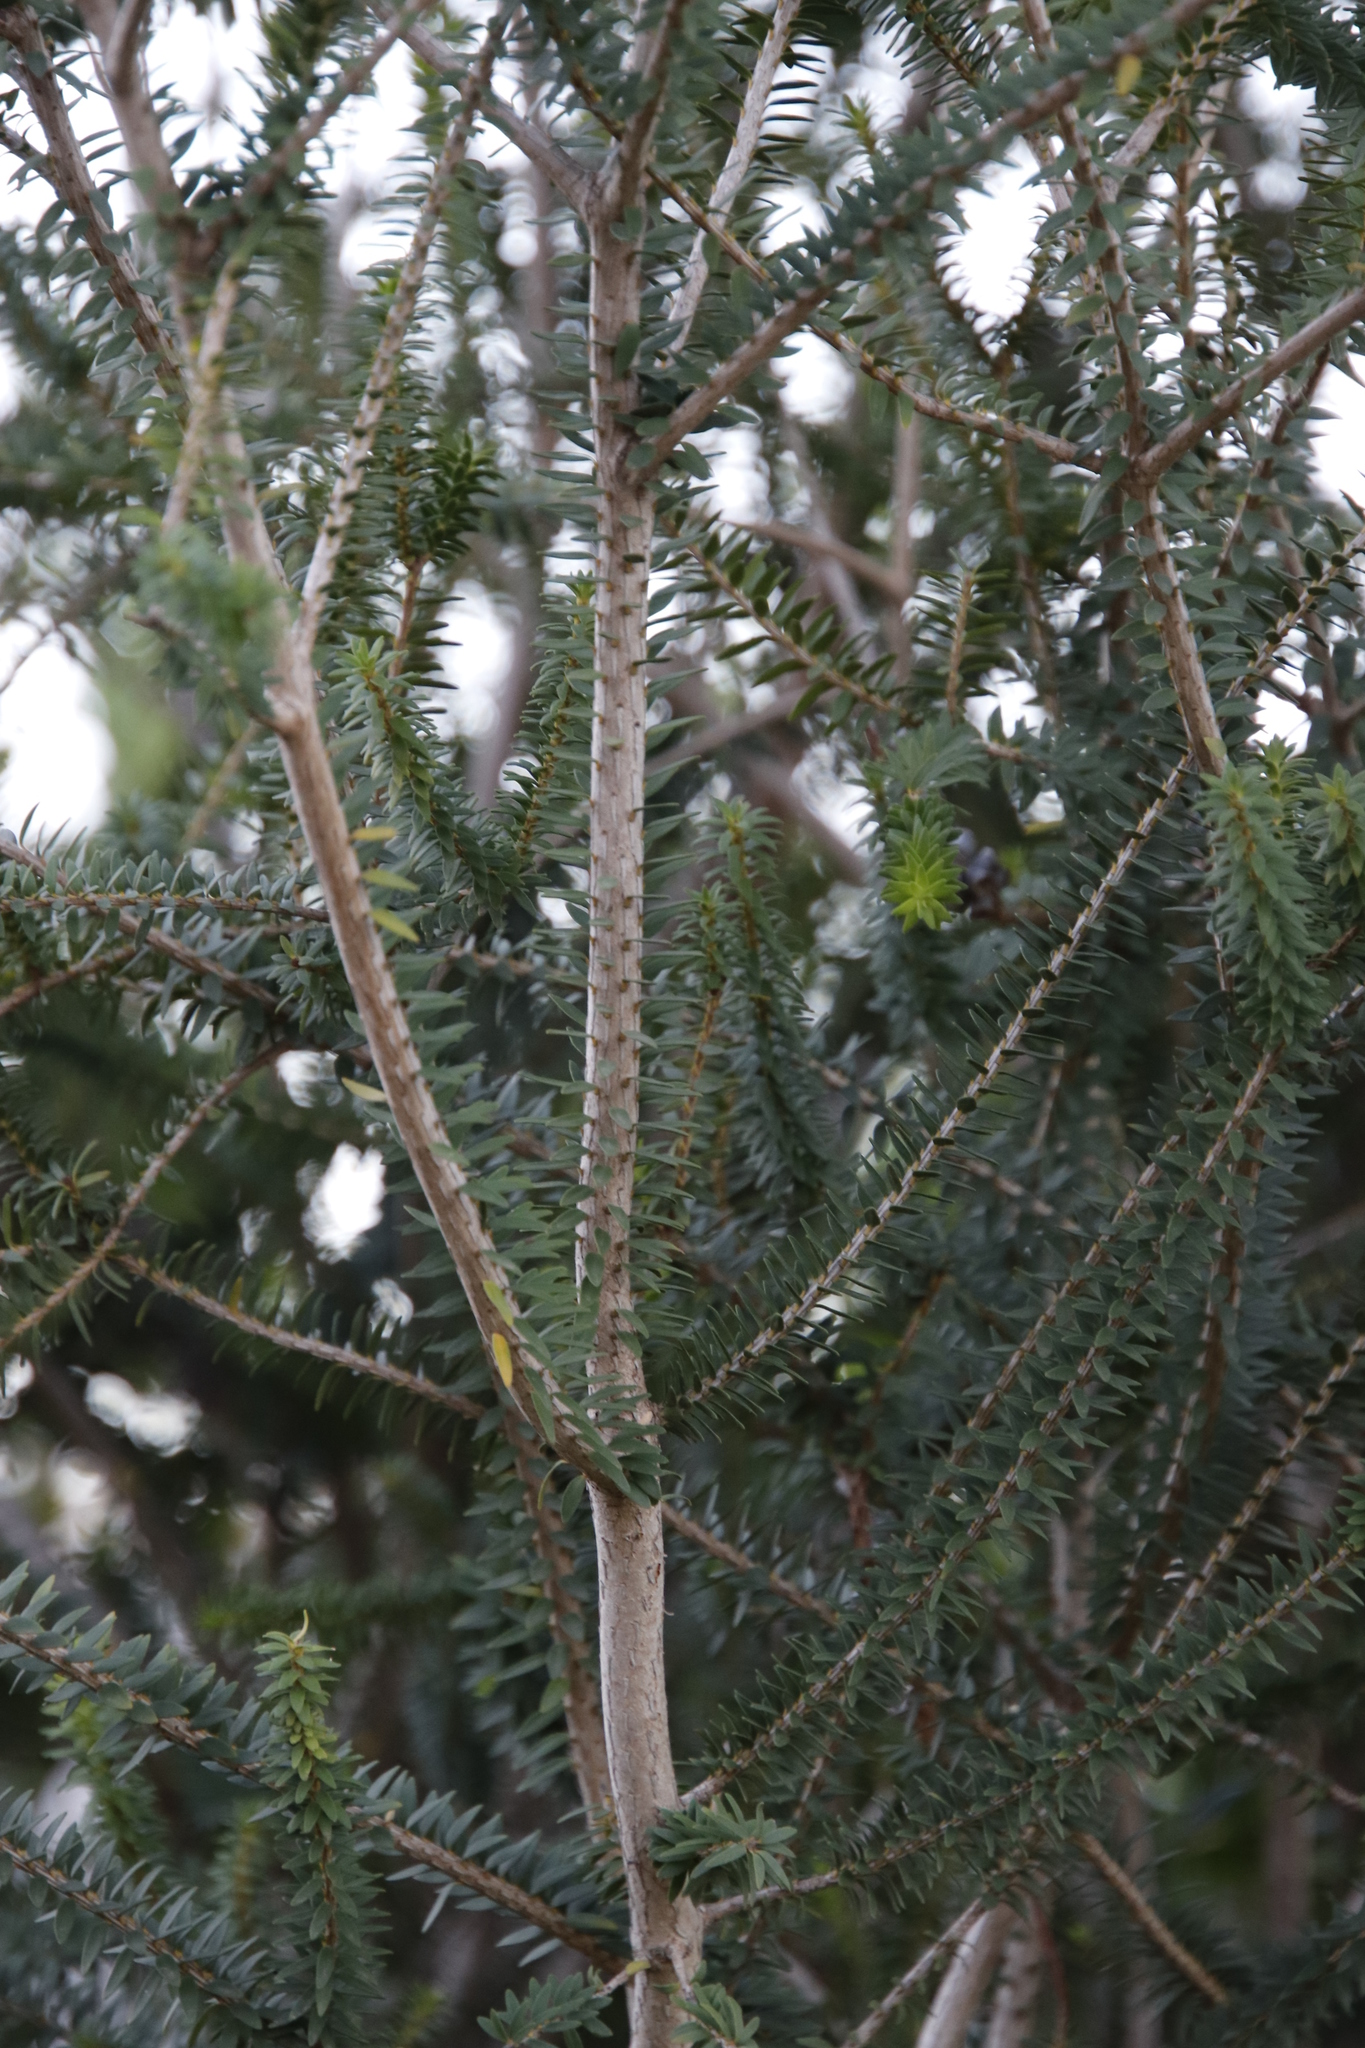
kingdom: Plantae
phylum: Tracheophyta
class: Magnoliopsida
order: Myrtales
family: Myrtaceae
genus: Melaleuca
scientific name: Melaleuca diosmifolia
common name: Green honey myrtle
